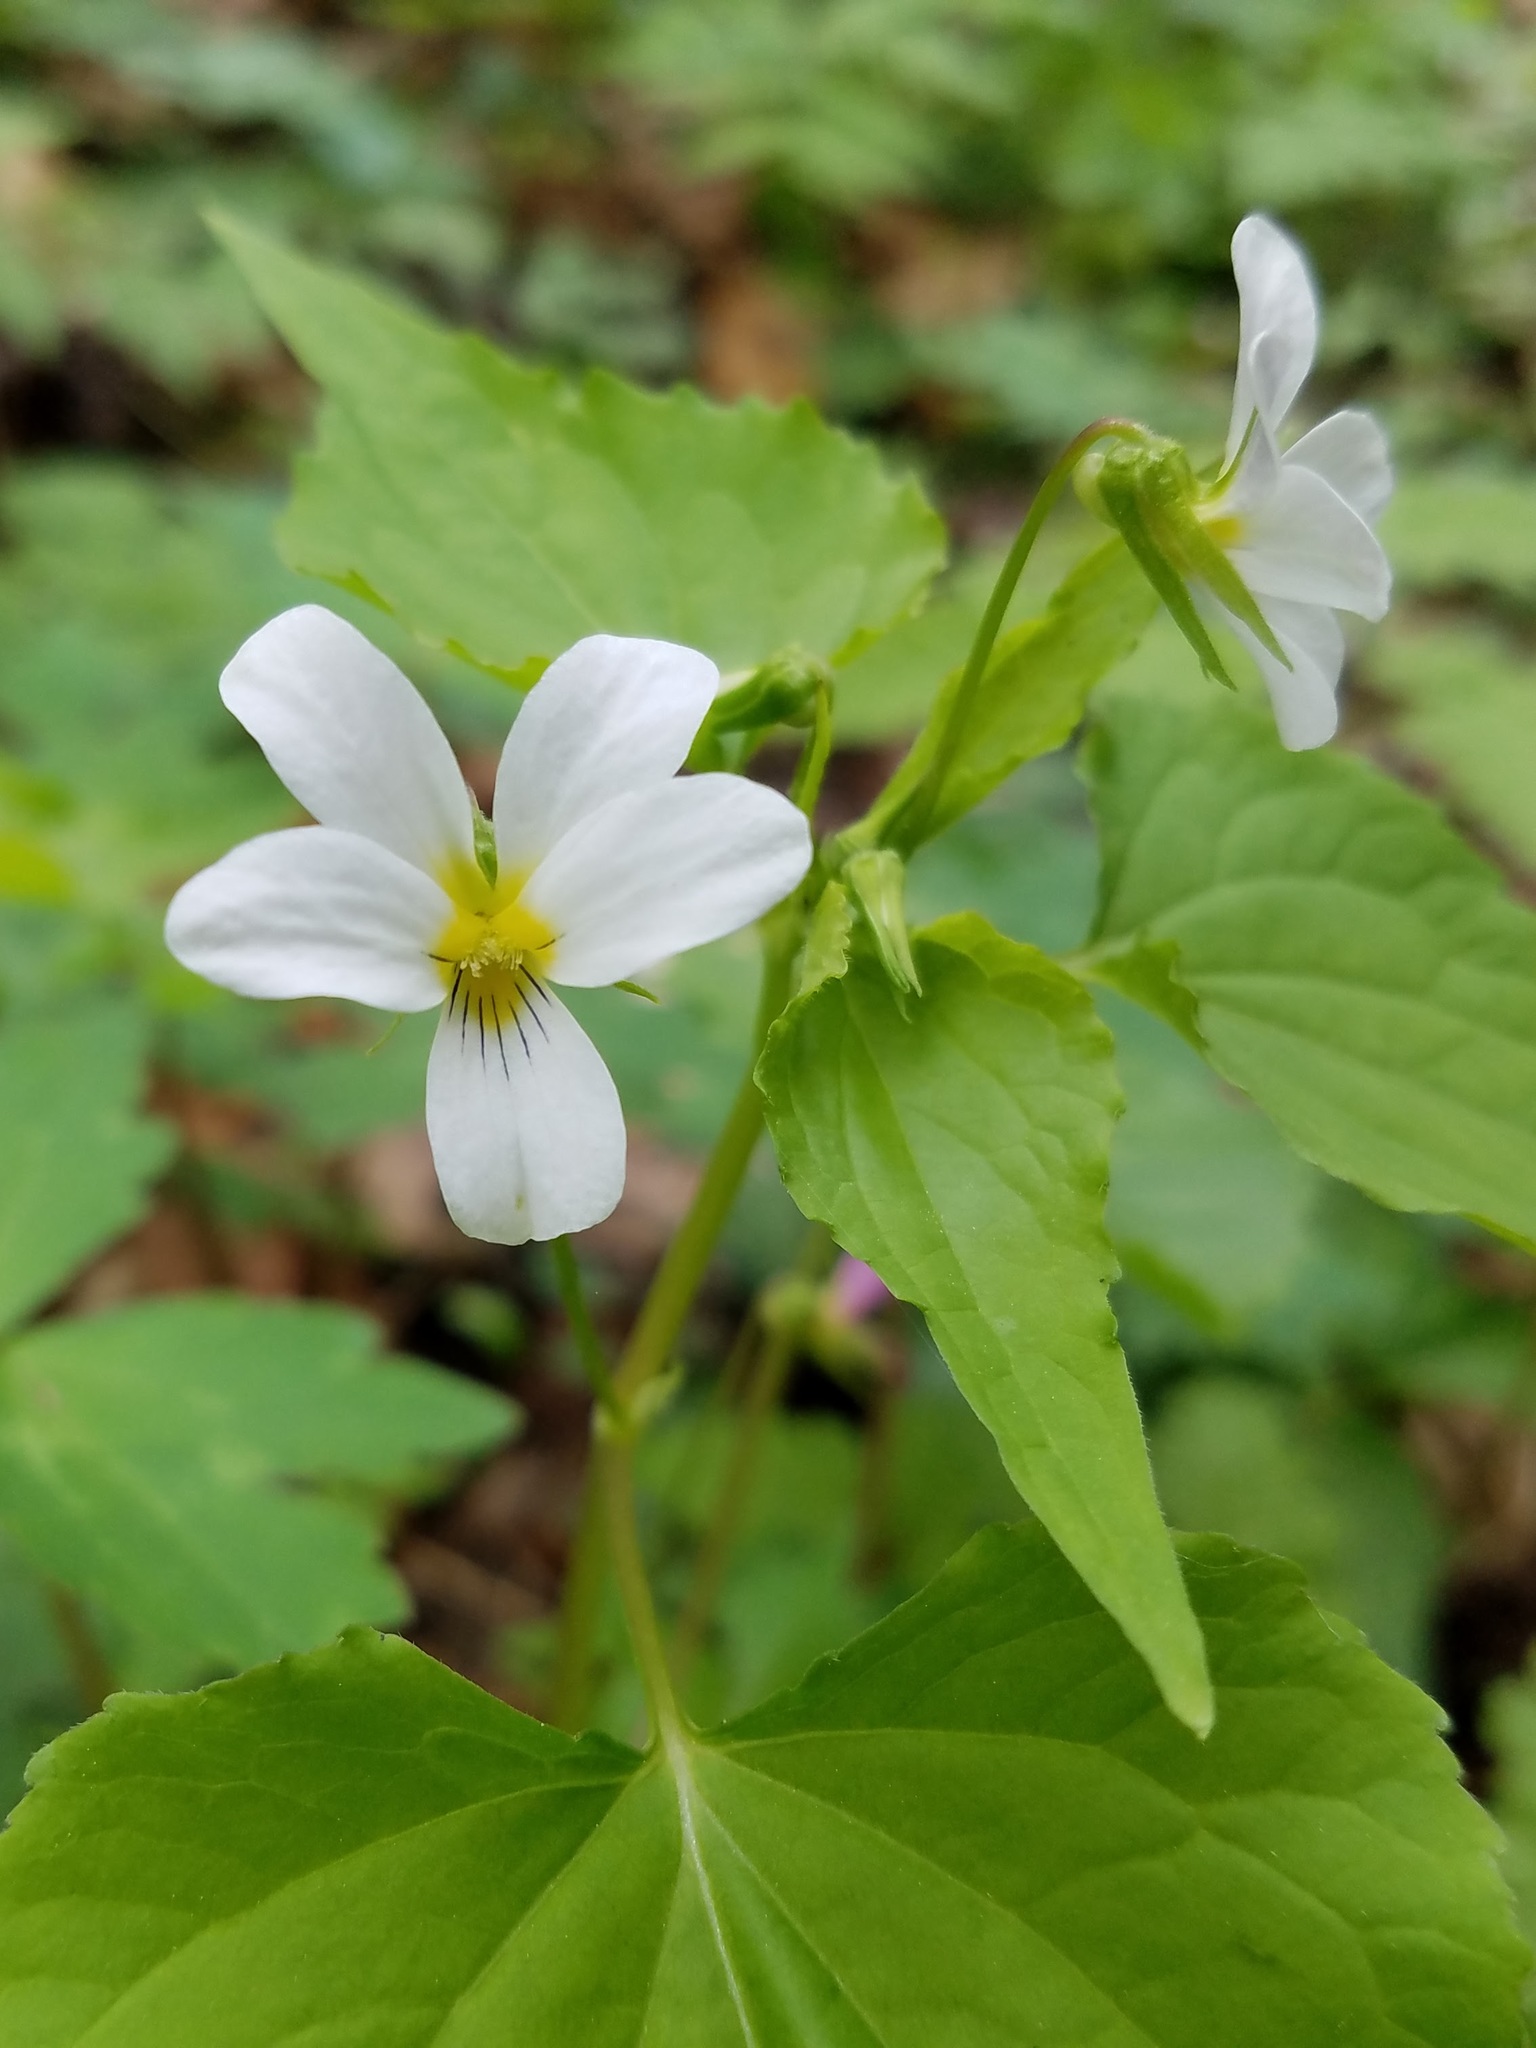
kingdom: Plantae
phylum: Tracheophyta
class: Magnoliopsida
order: Malpighiales
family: Violaceae
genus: Viola
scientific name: Viola canadensis
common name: Canada violet
